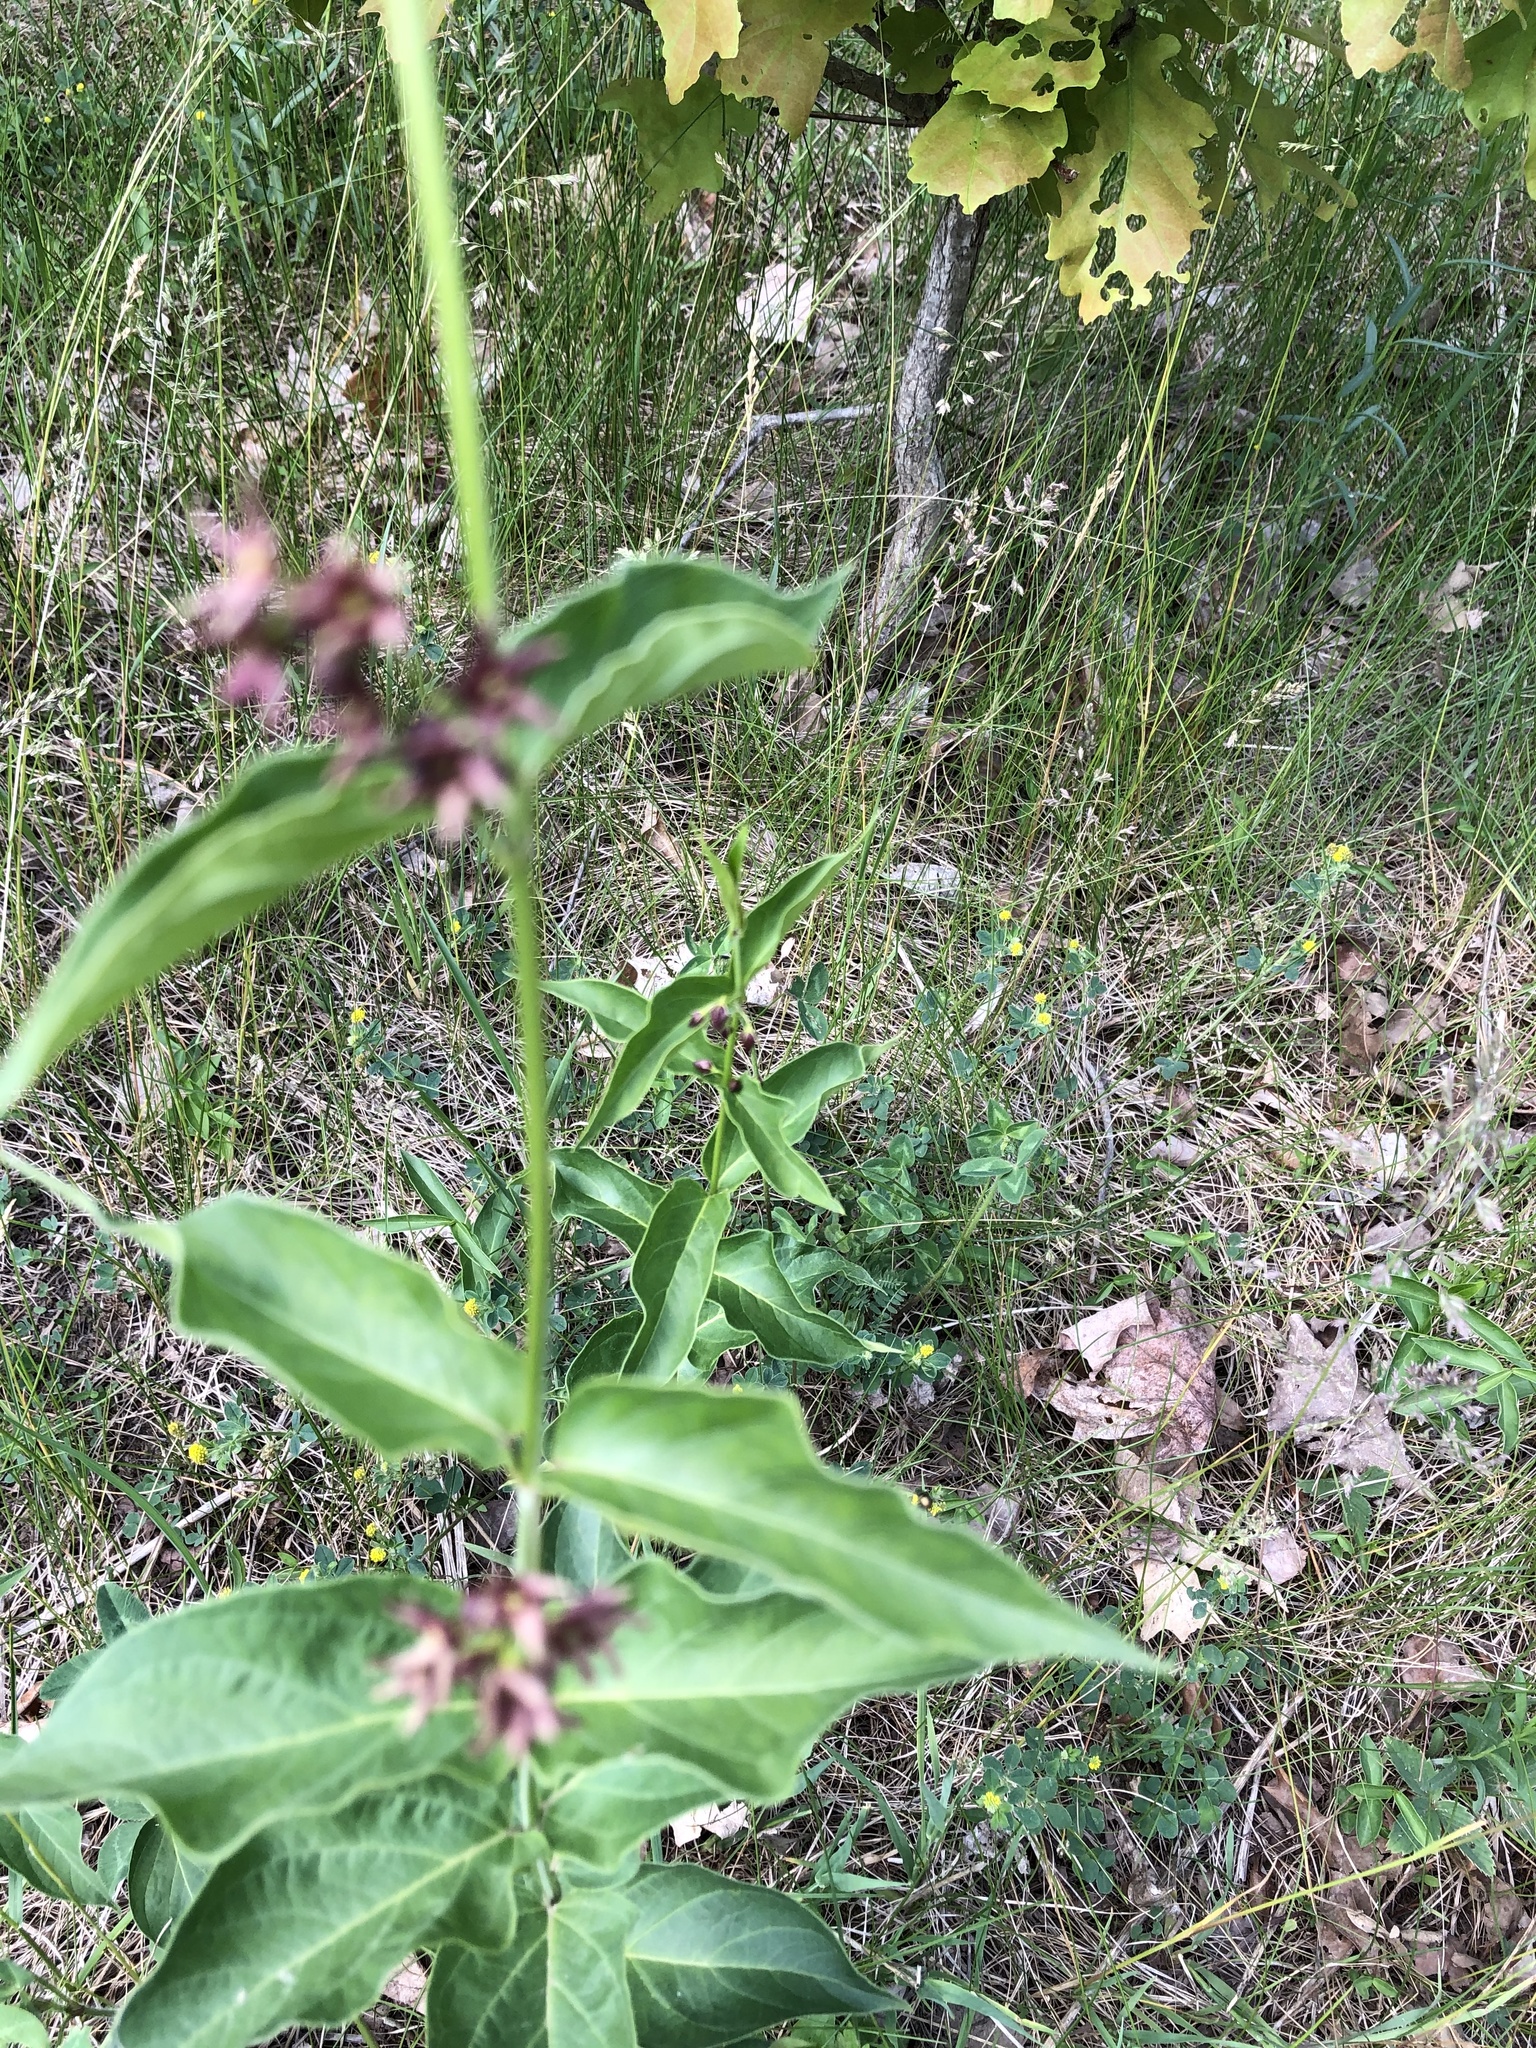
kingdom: Plantae
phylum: Tracheophyta
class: Magnoliopsida
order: Gentianales
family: Apocynaceae
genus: Vincetoxicum
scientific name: Vincetoxicum rossicum
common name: Dog-strangling vine
